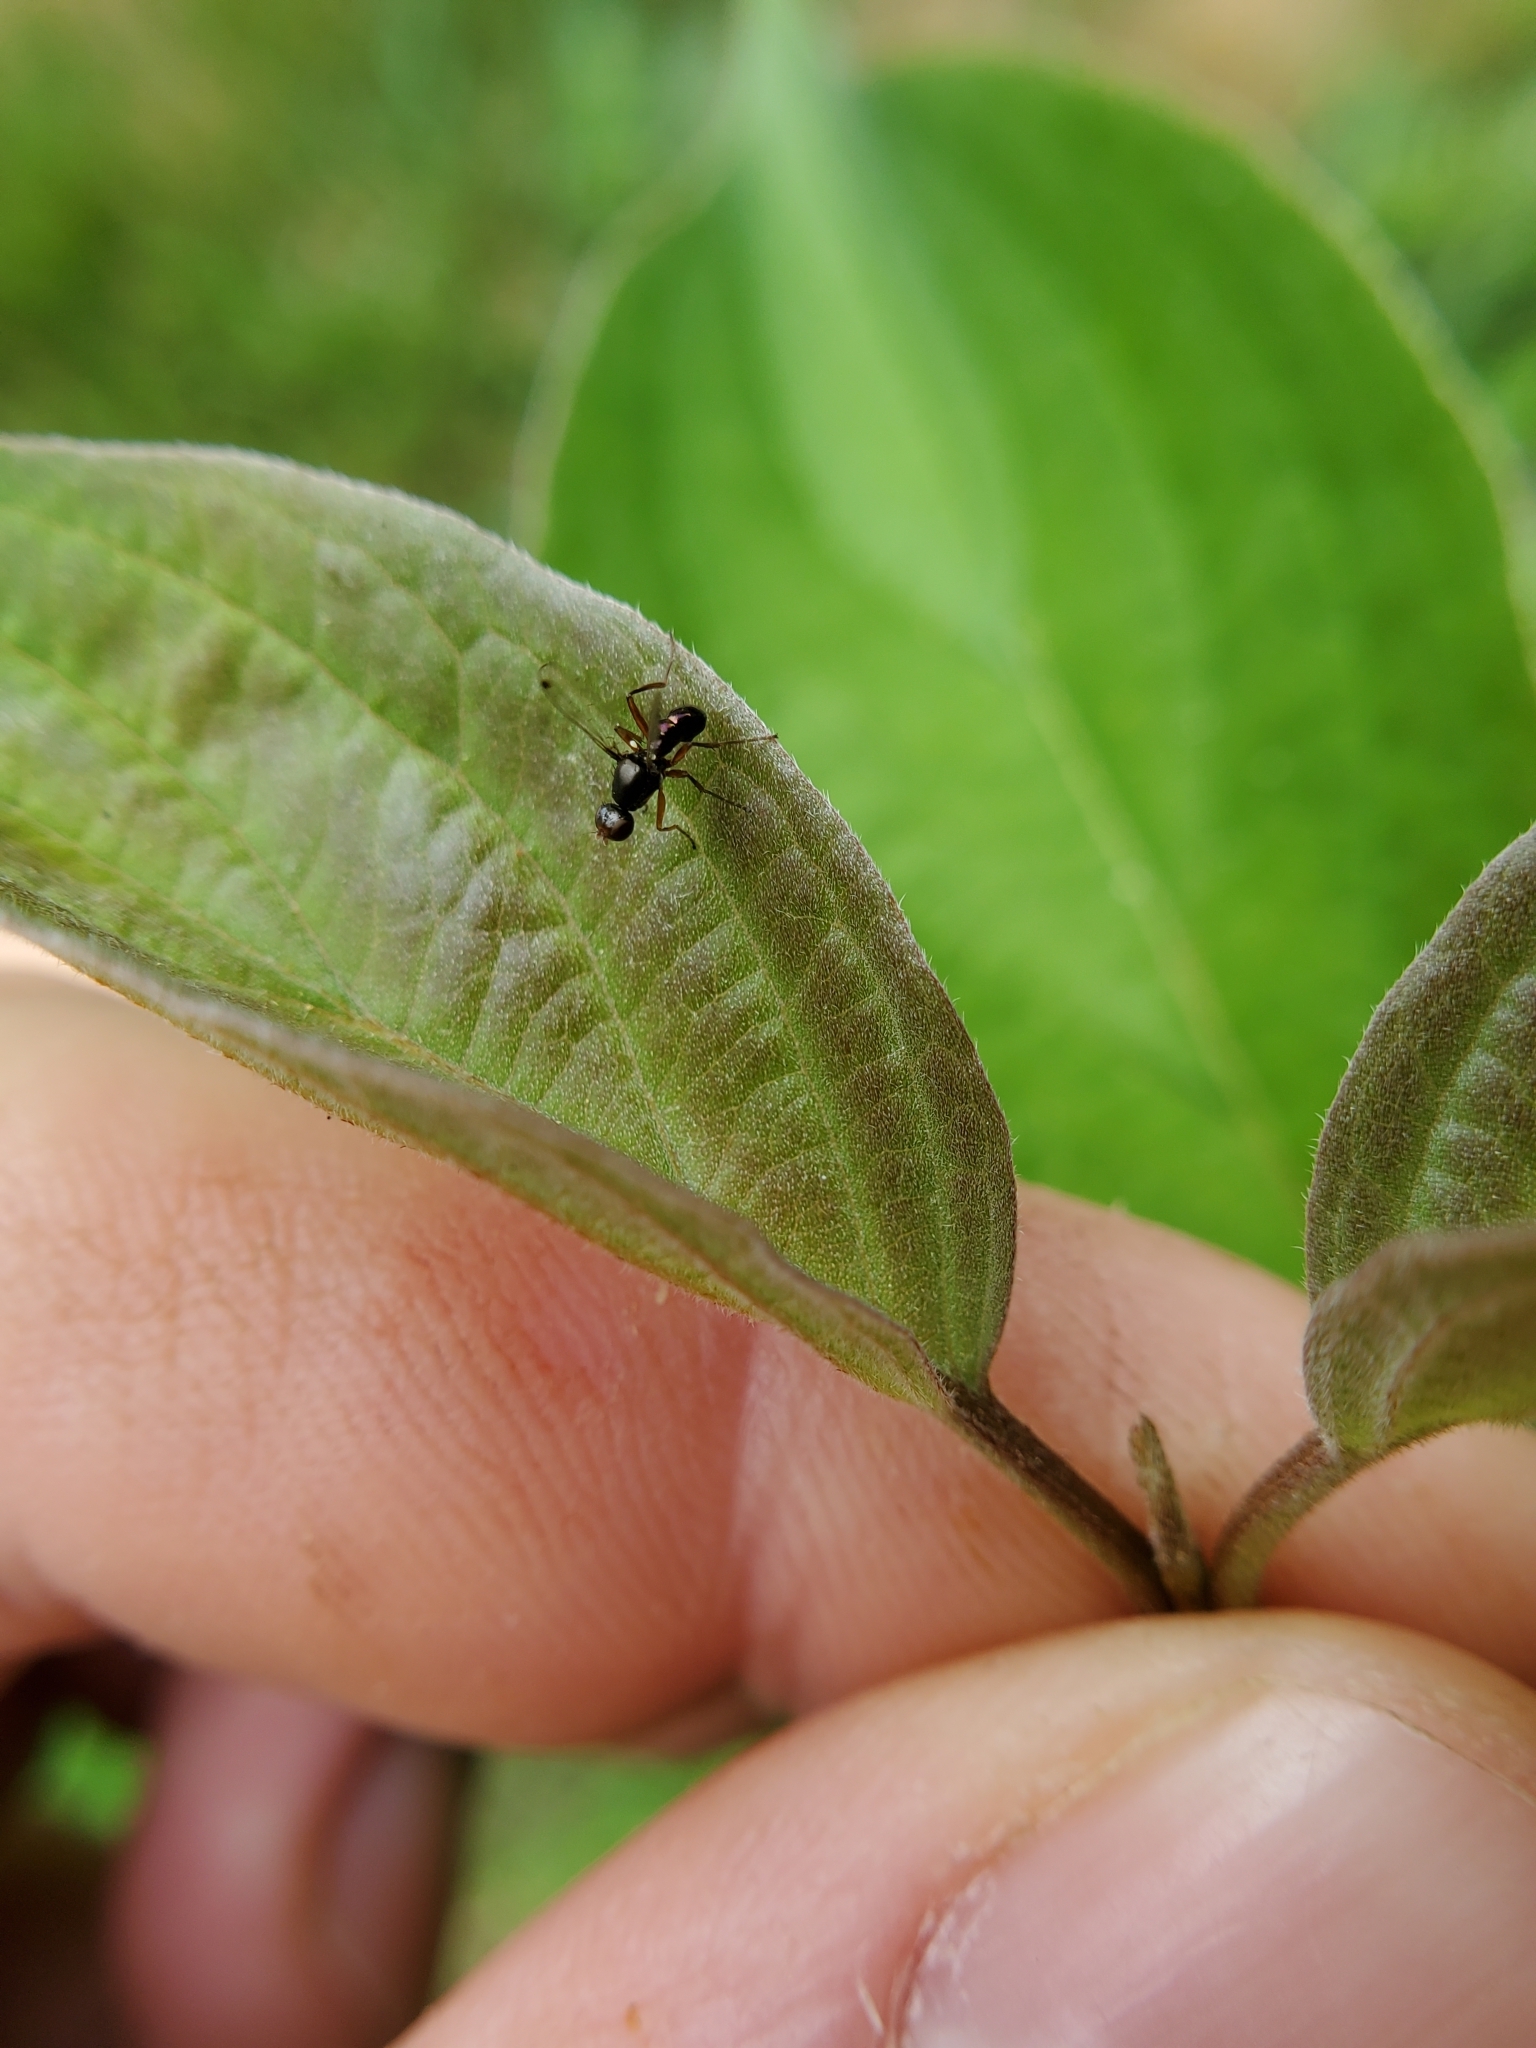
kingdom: Animalia
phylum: Arthropoda
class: Insecta
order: Diptera
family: Sepsidae
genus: Sepsis
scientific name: Sepsis punctum
